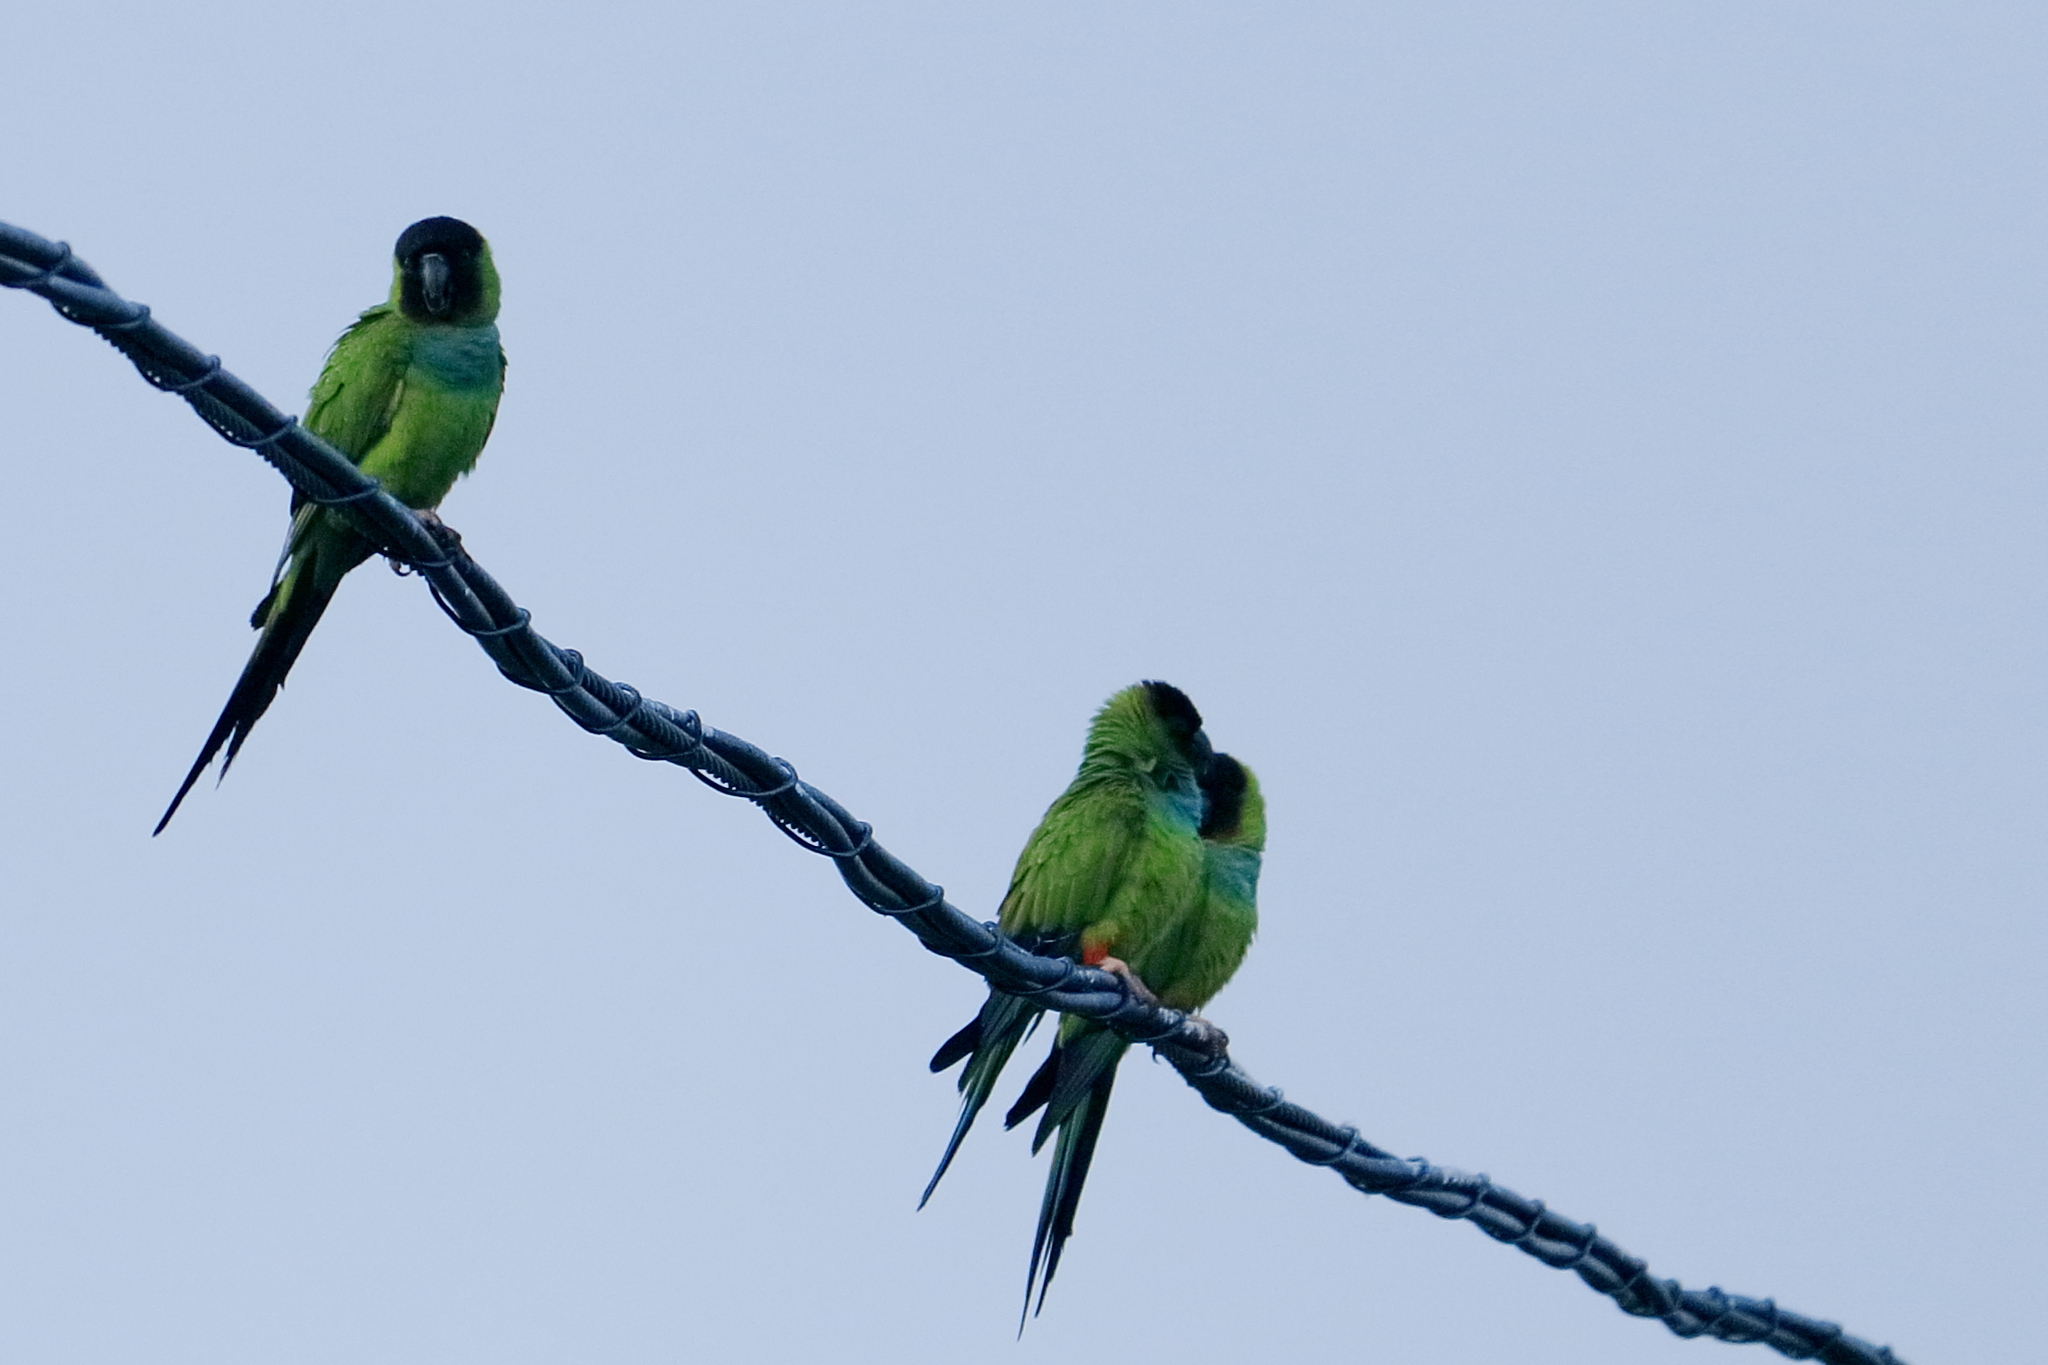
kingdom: Animalia
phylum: Chordata
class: Aves
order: Psittaciformes
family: Psittacidae
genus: Nandayus
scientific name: Nandayus nenday
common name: Nanday parakeet
